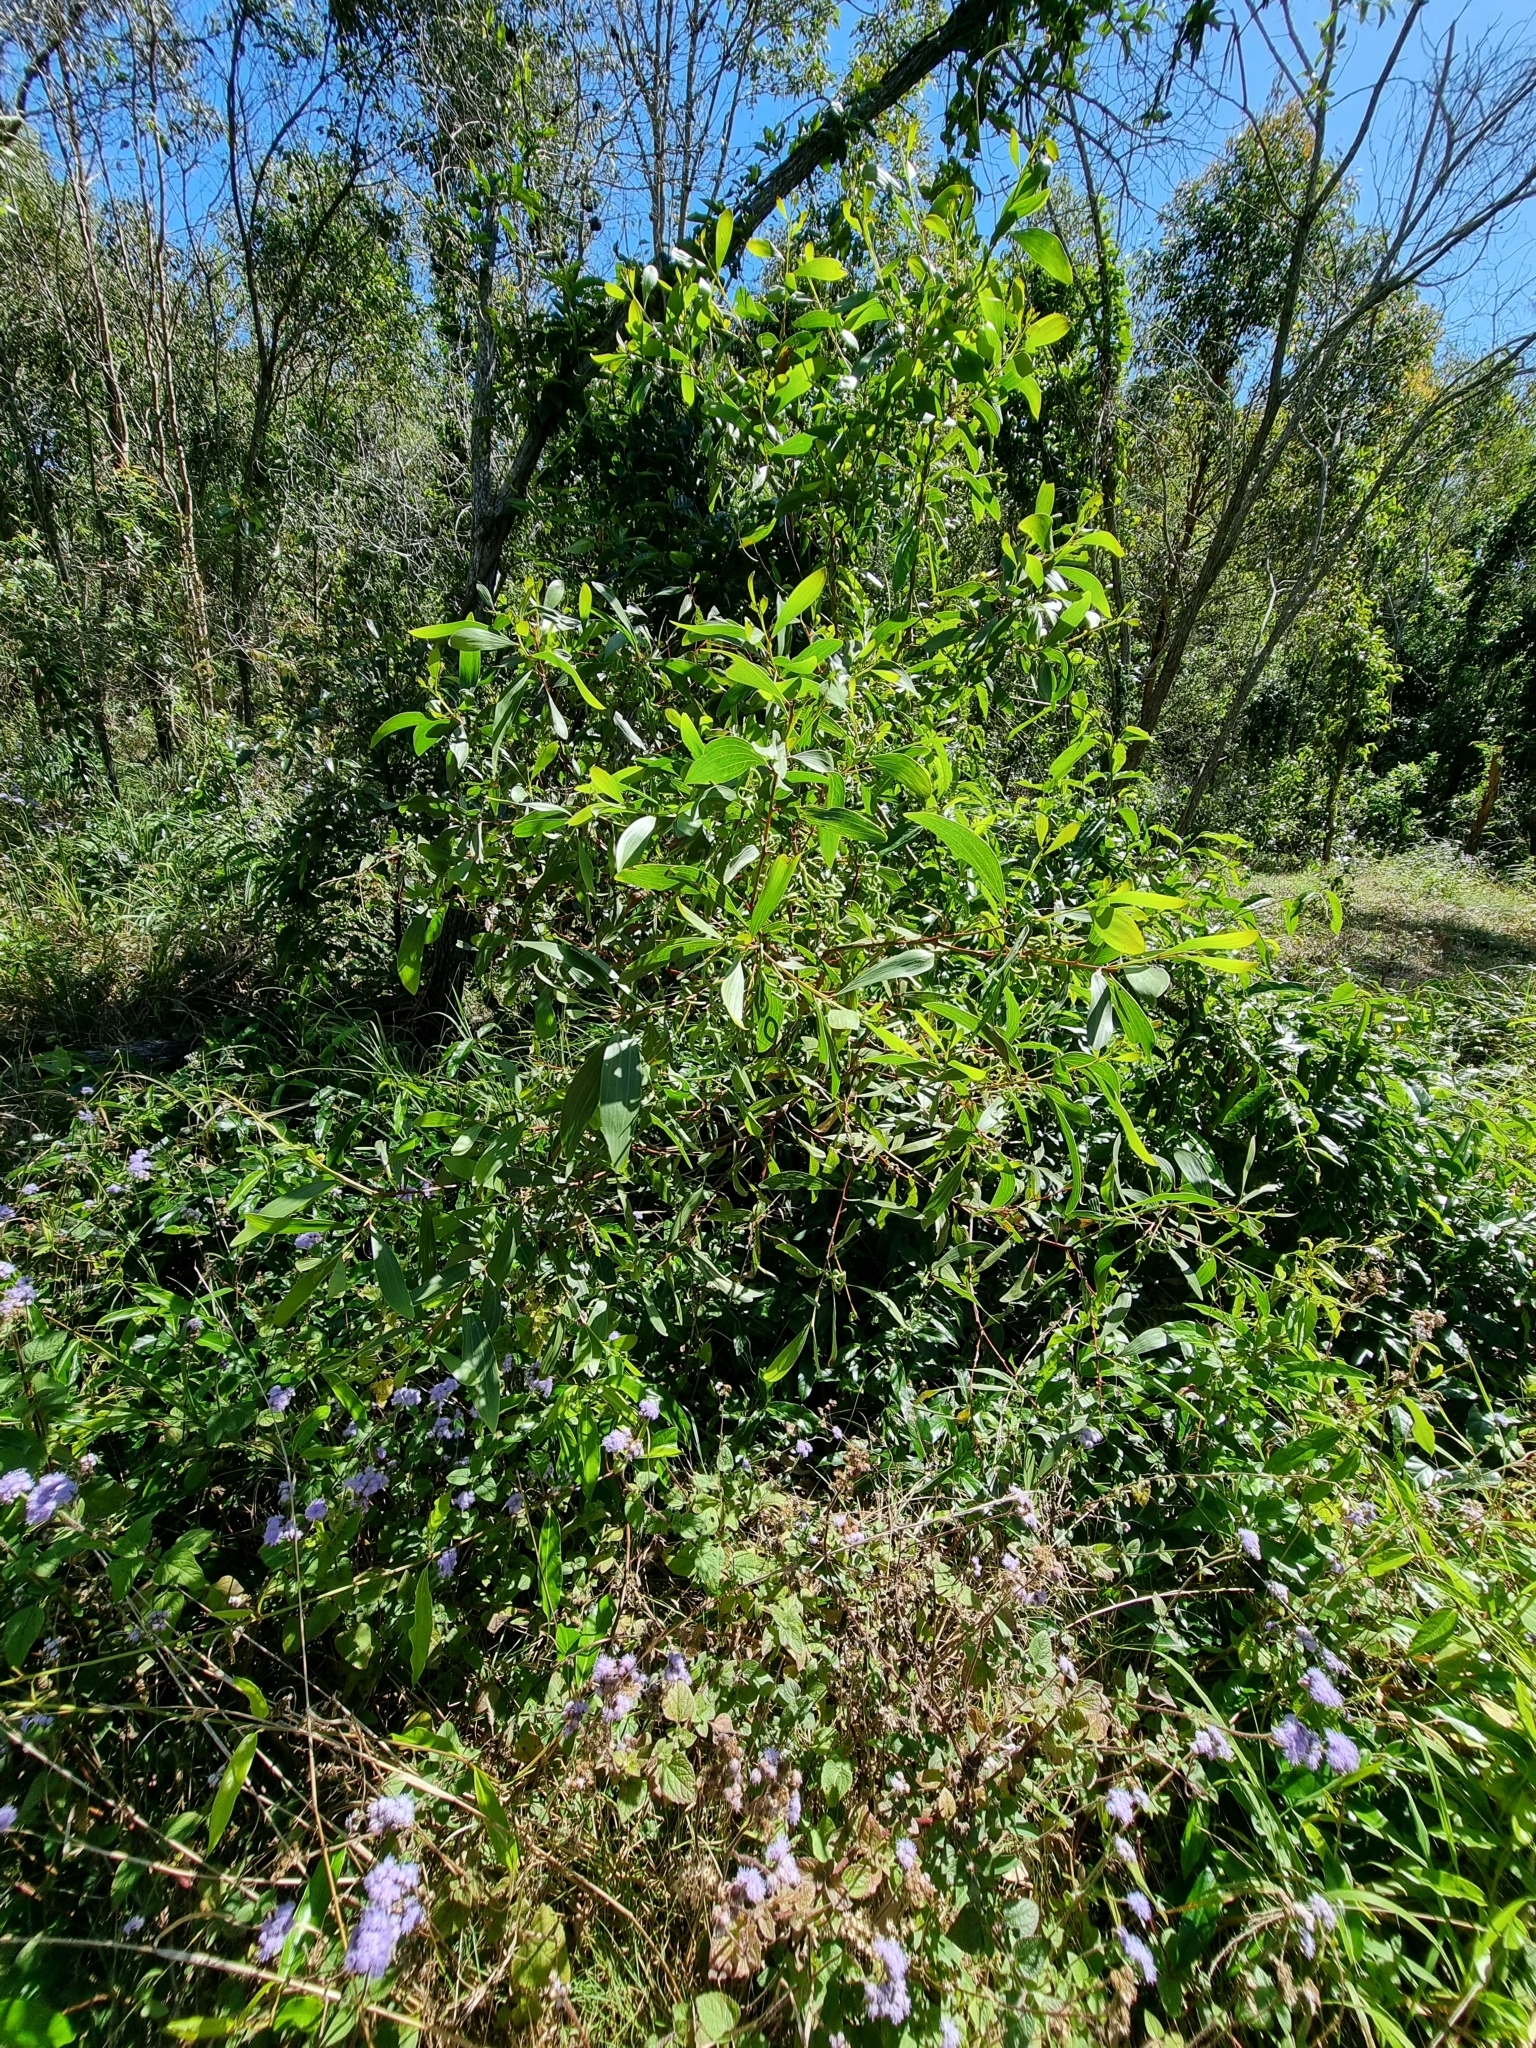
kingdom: Plantae
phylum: Tracheophyta
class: Magnoliopsida
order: Fabales
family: Fabaceae
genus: Acacia
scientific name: Acacia leiocalyx
